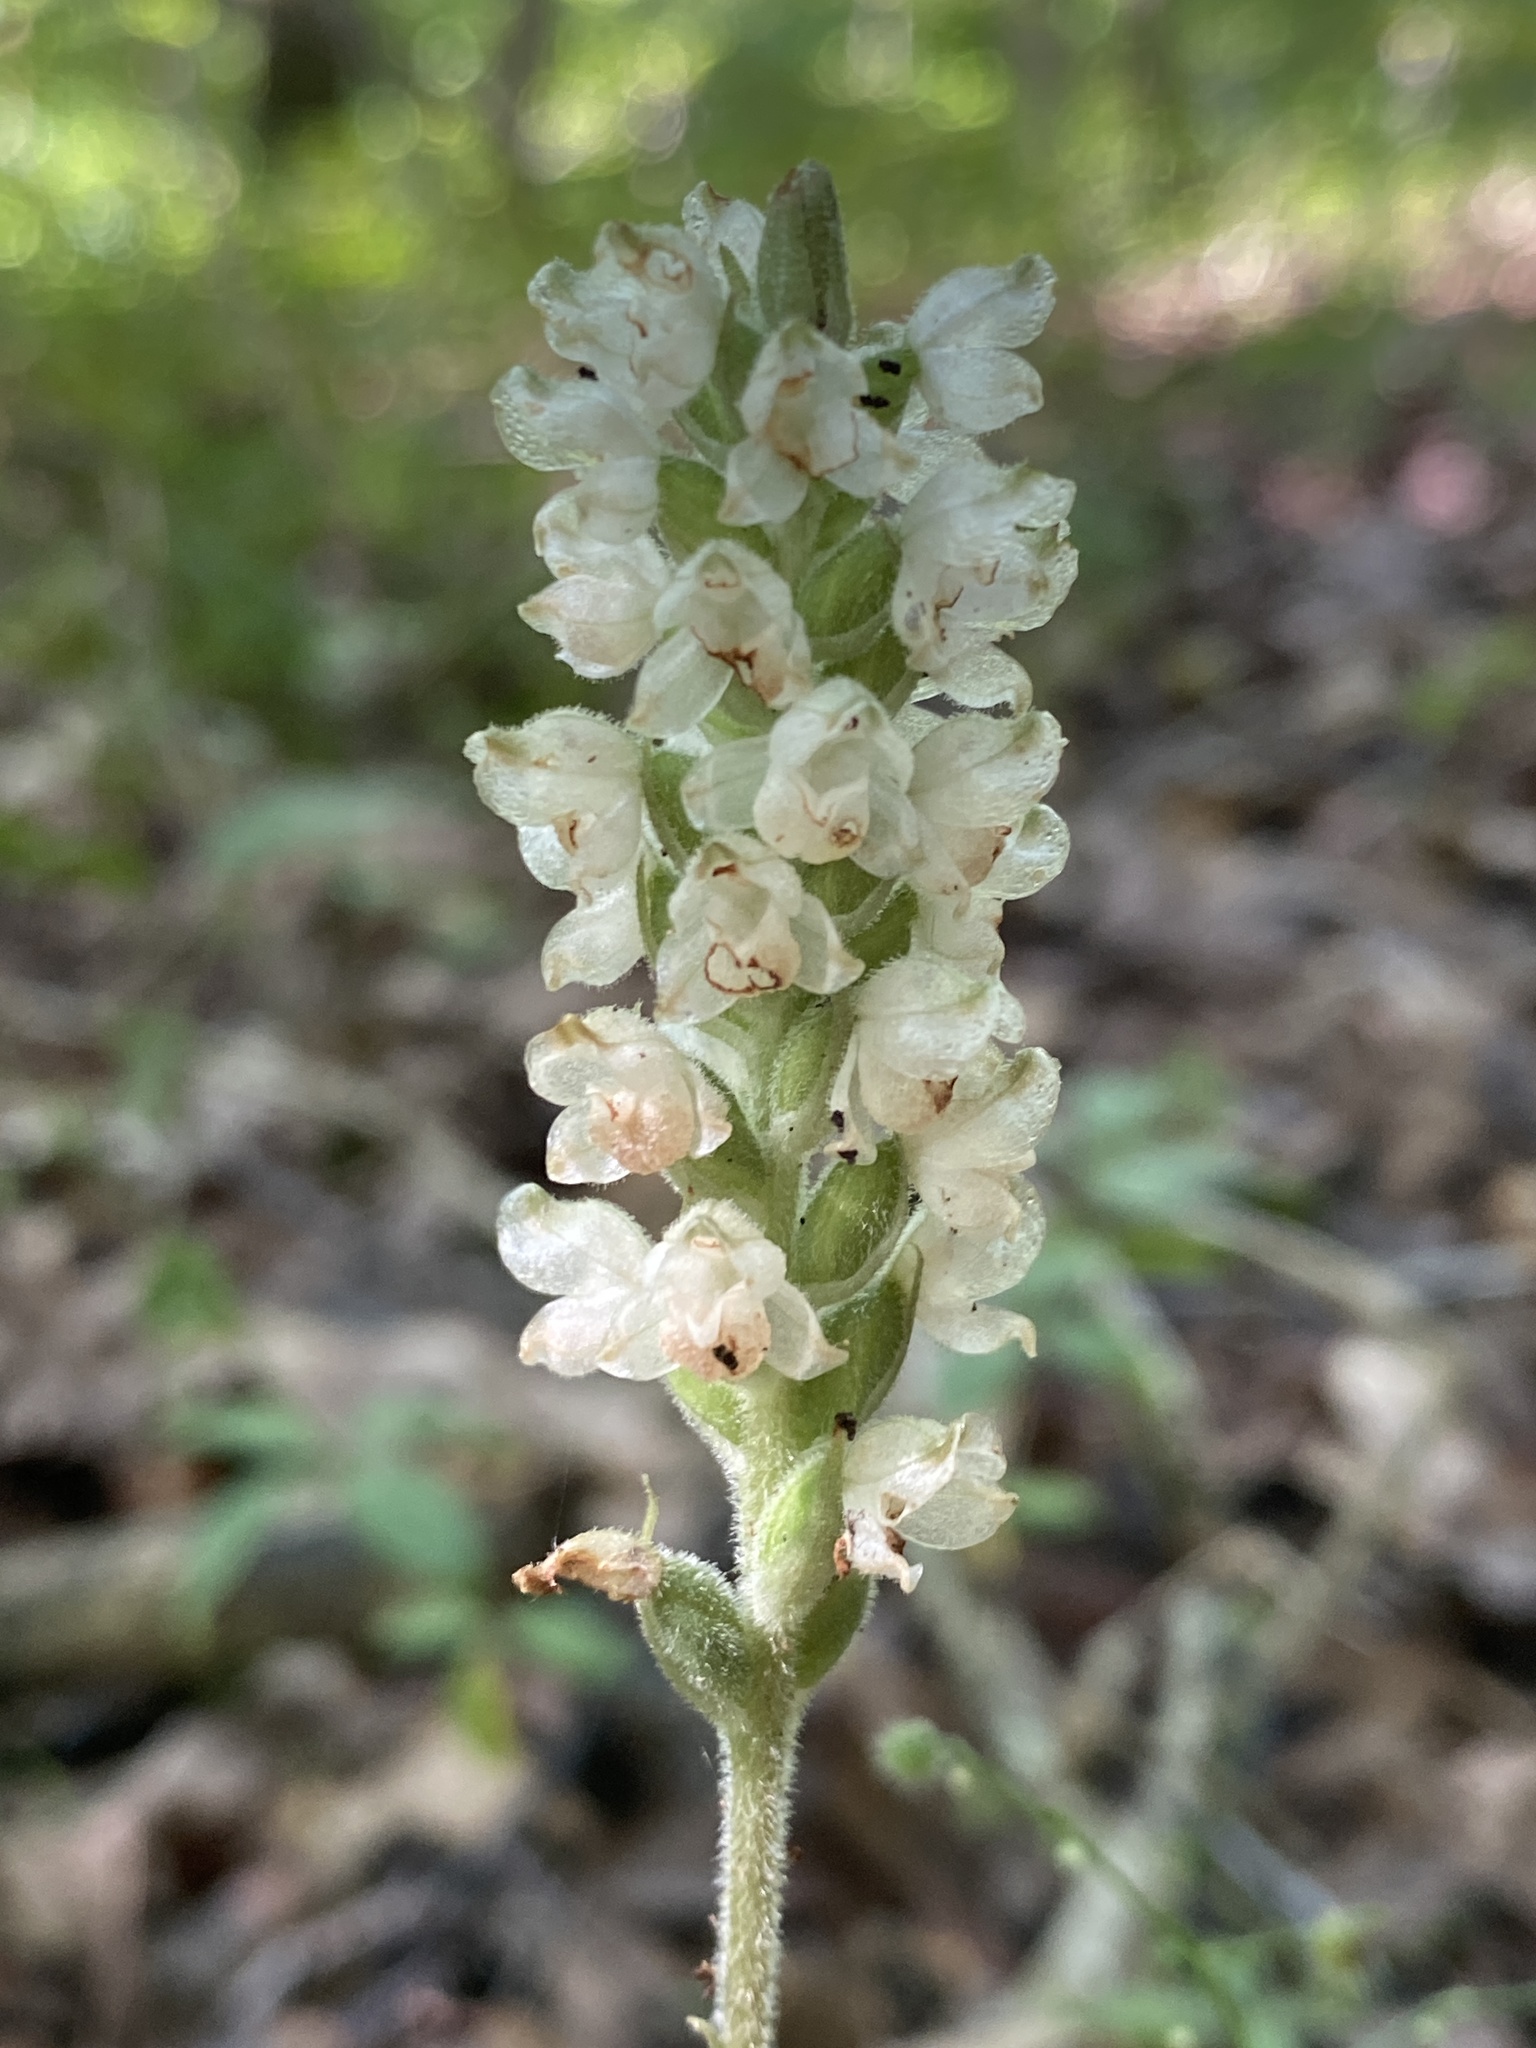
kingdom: Plantae
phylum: Tracheophyta
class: Liliopsida
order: Asparagales
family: Orchidaceae
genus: Goodyera
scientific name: Goodyera pubescens
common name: Downy rattlesnake-plantain
